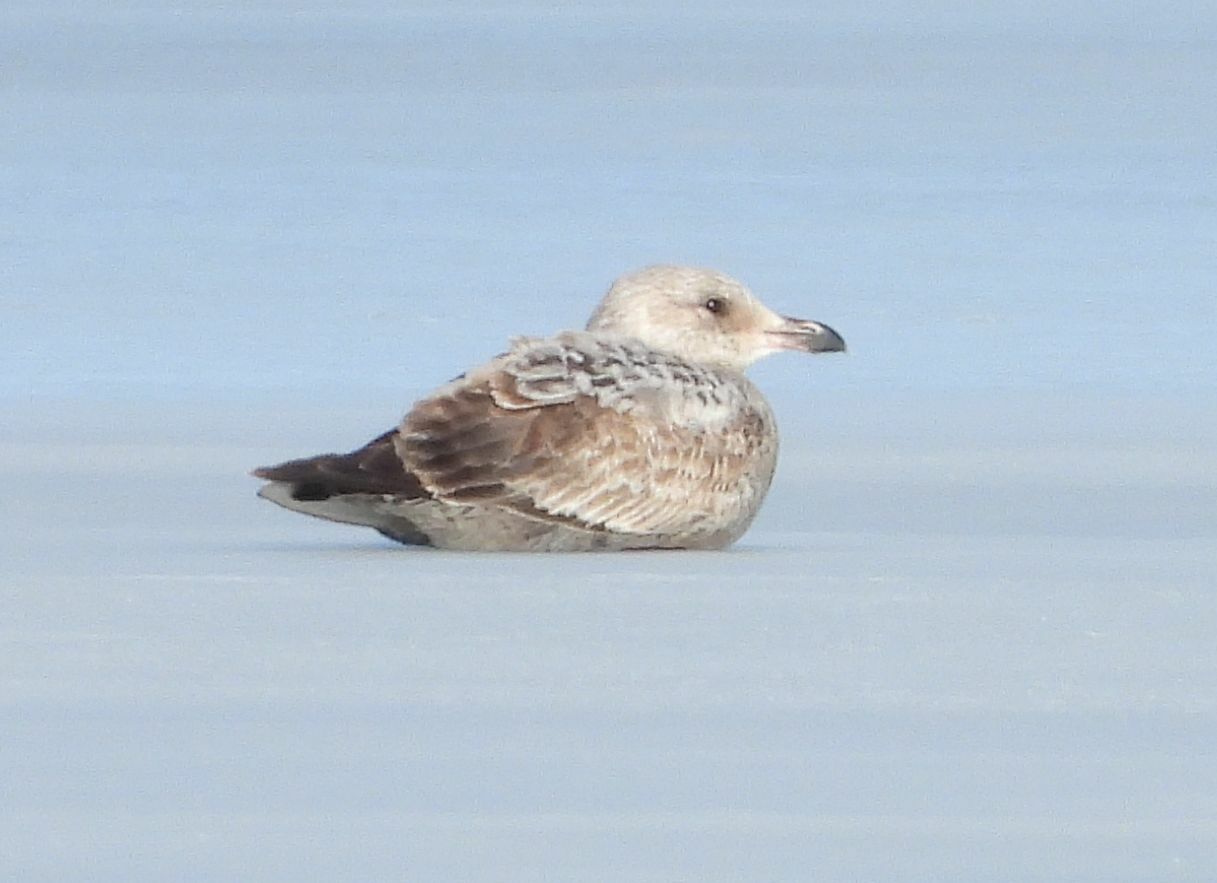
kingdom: Animalia
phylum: Chordata
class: Aves
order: Charadriiformes
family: Laridae
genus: Larus
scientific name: Larus argentatus
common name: Herring gull
